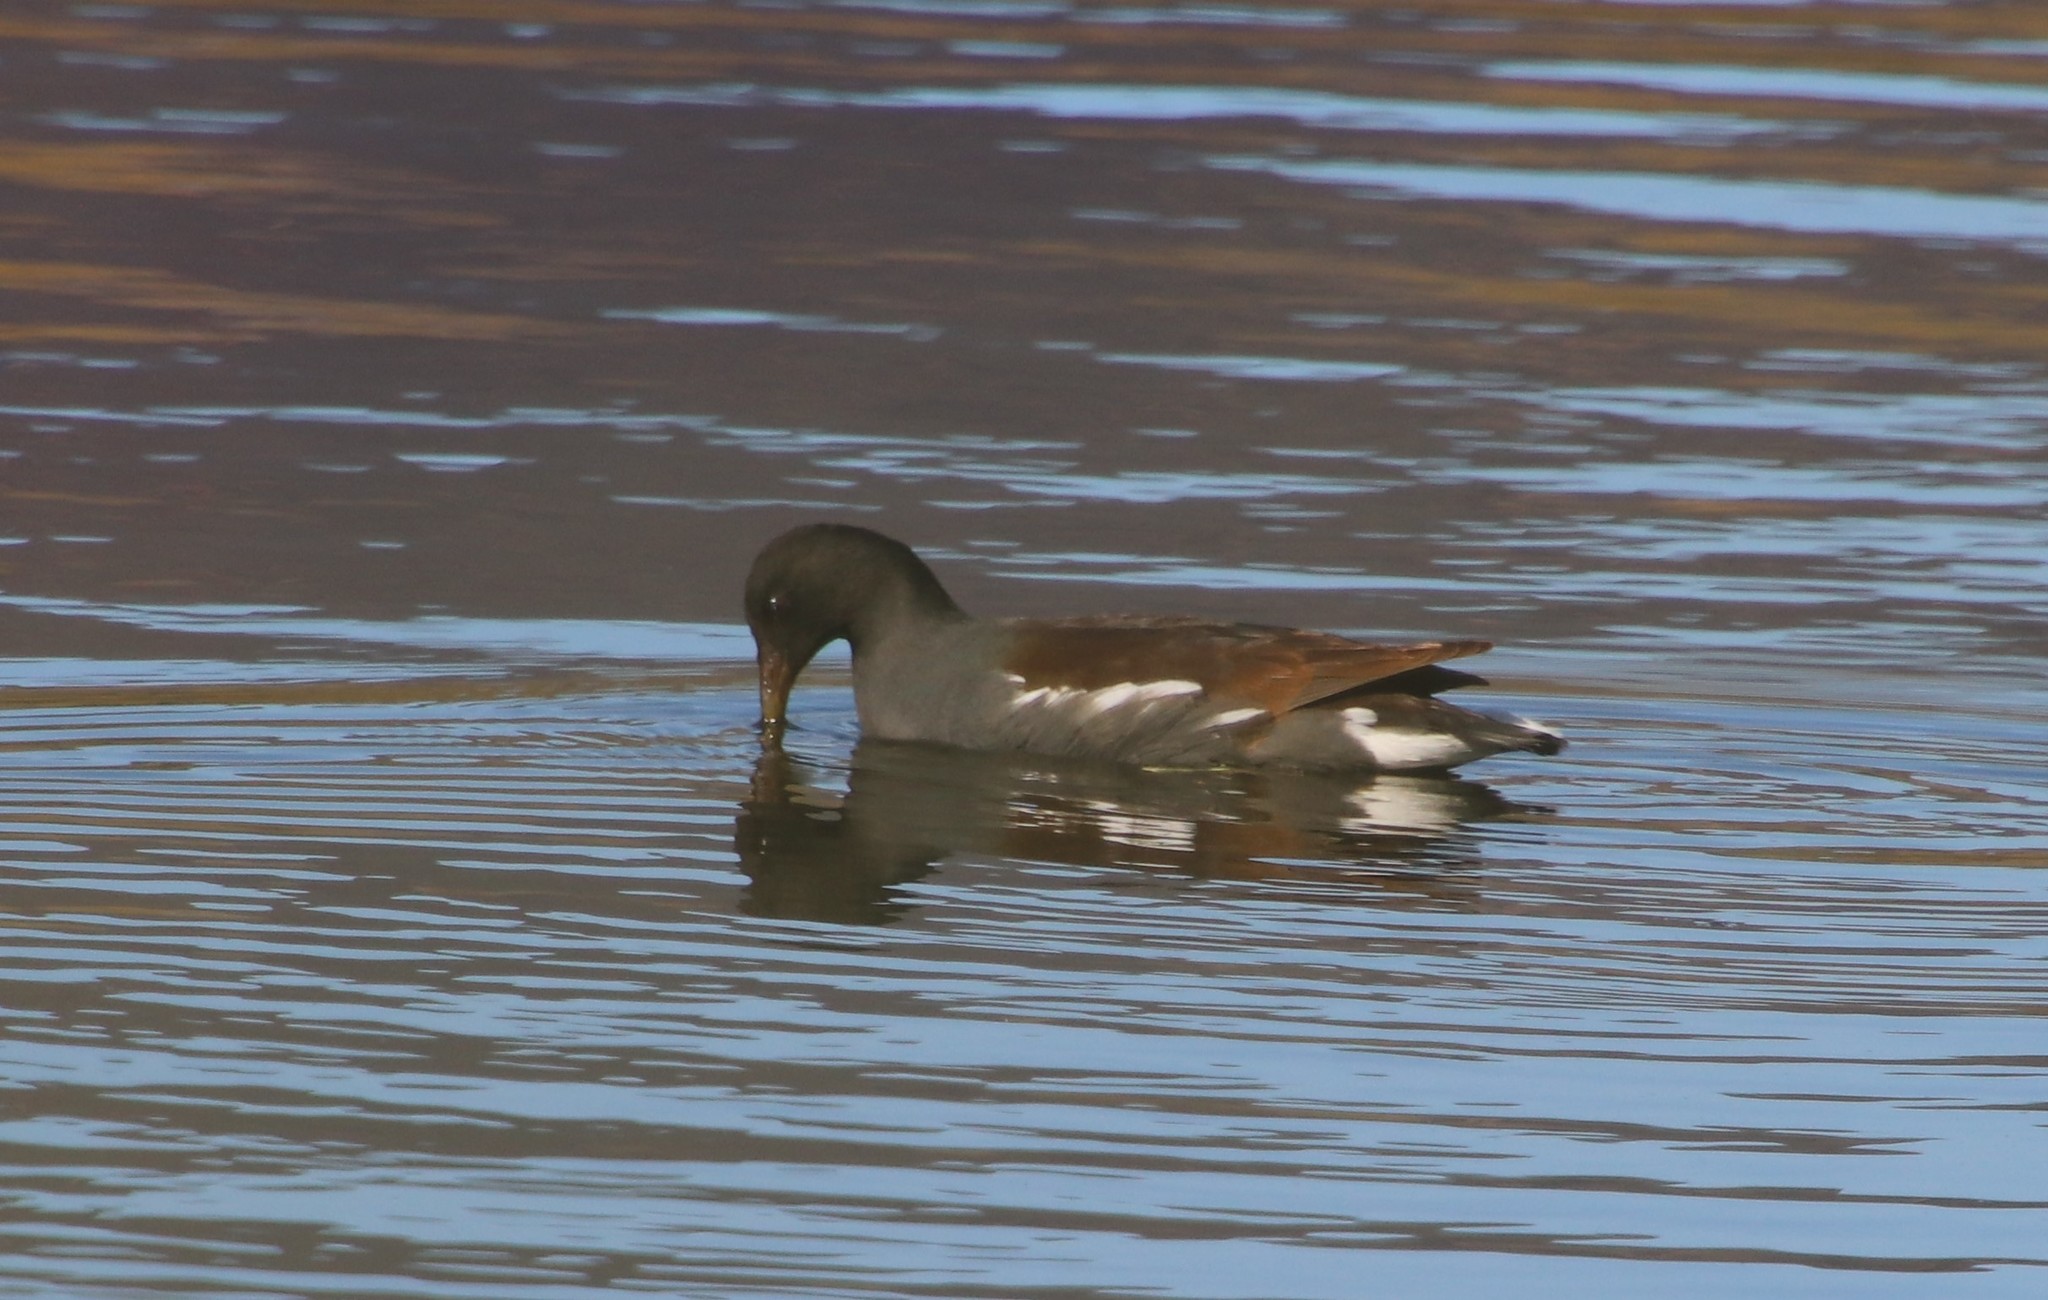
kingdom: Animalia
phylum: Chordata
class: Aves
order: Gruiformes
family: Rallidae
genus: Gallinula
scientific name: Gallinula chloropus
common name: Common moorhen
